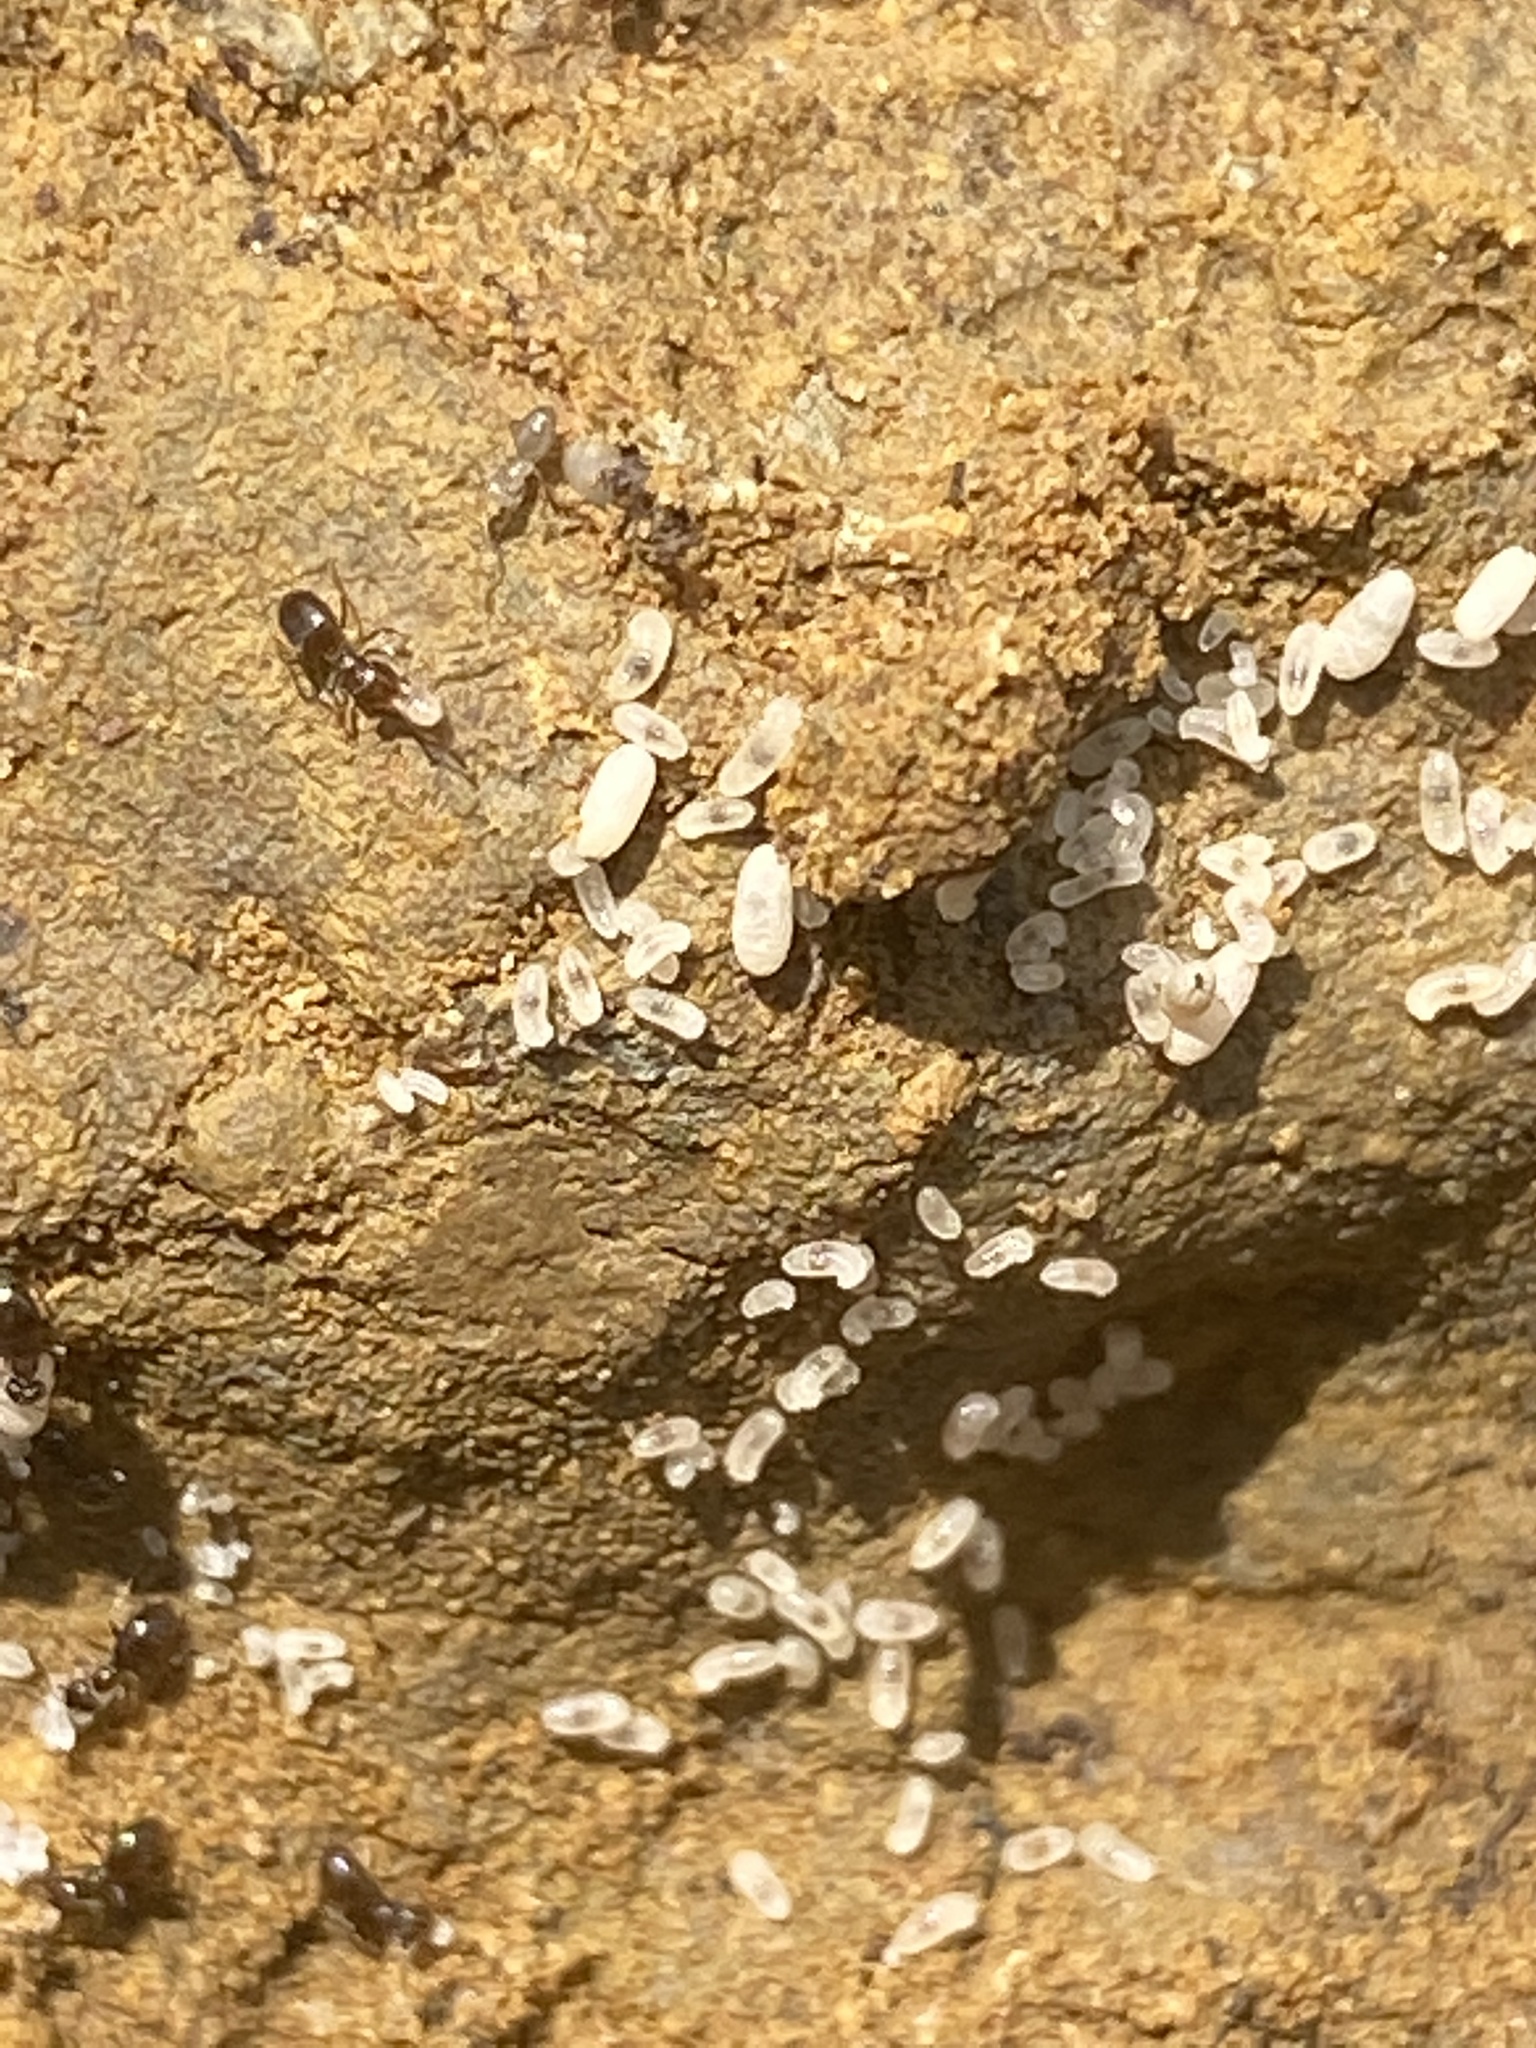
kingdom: Animalia
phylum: Arthropoda
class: Insecta
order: Hymenoptera
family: Formicidae
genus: Brachymyrmex
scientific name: Brachymyrmex patagonicus
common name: Dark rover ant
